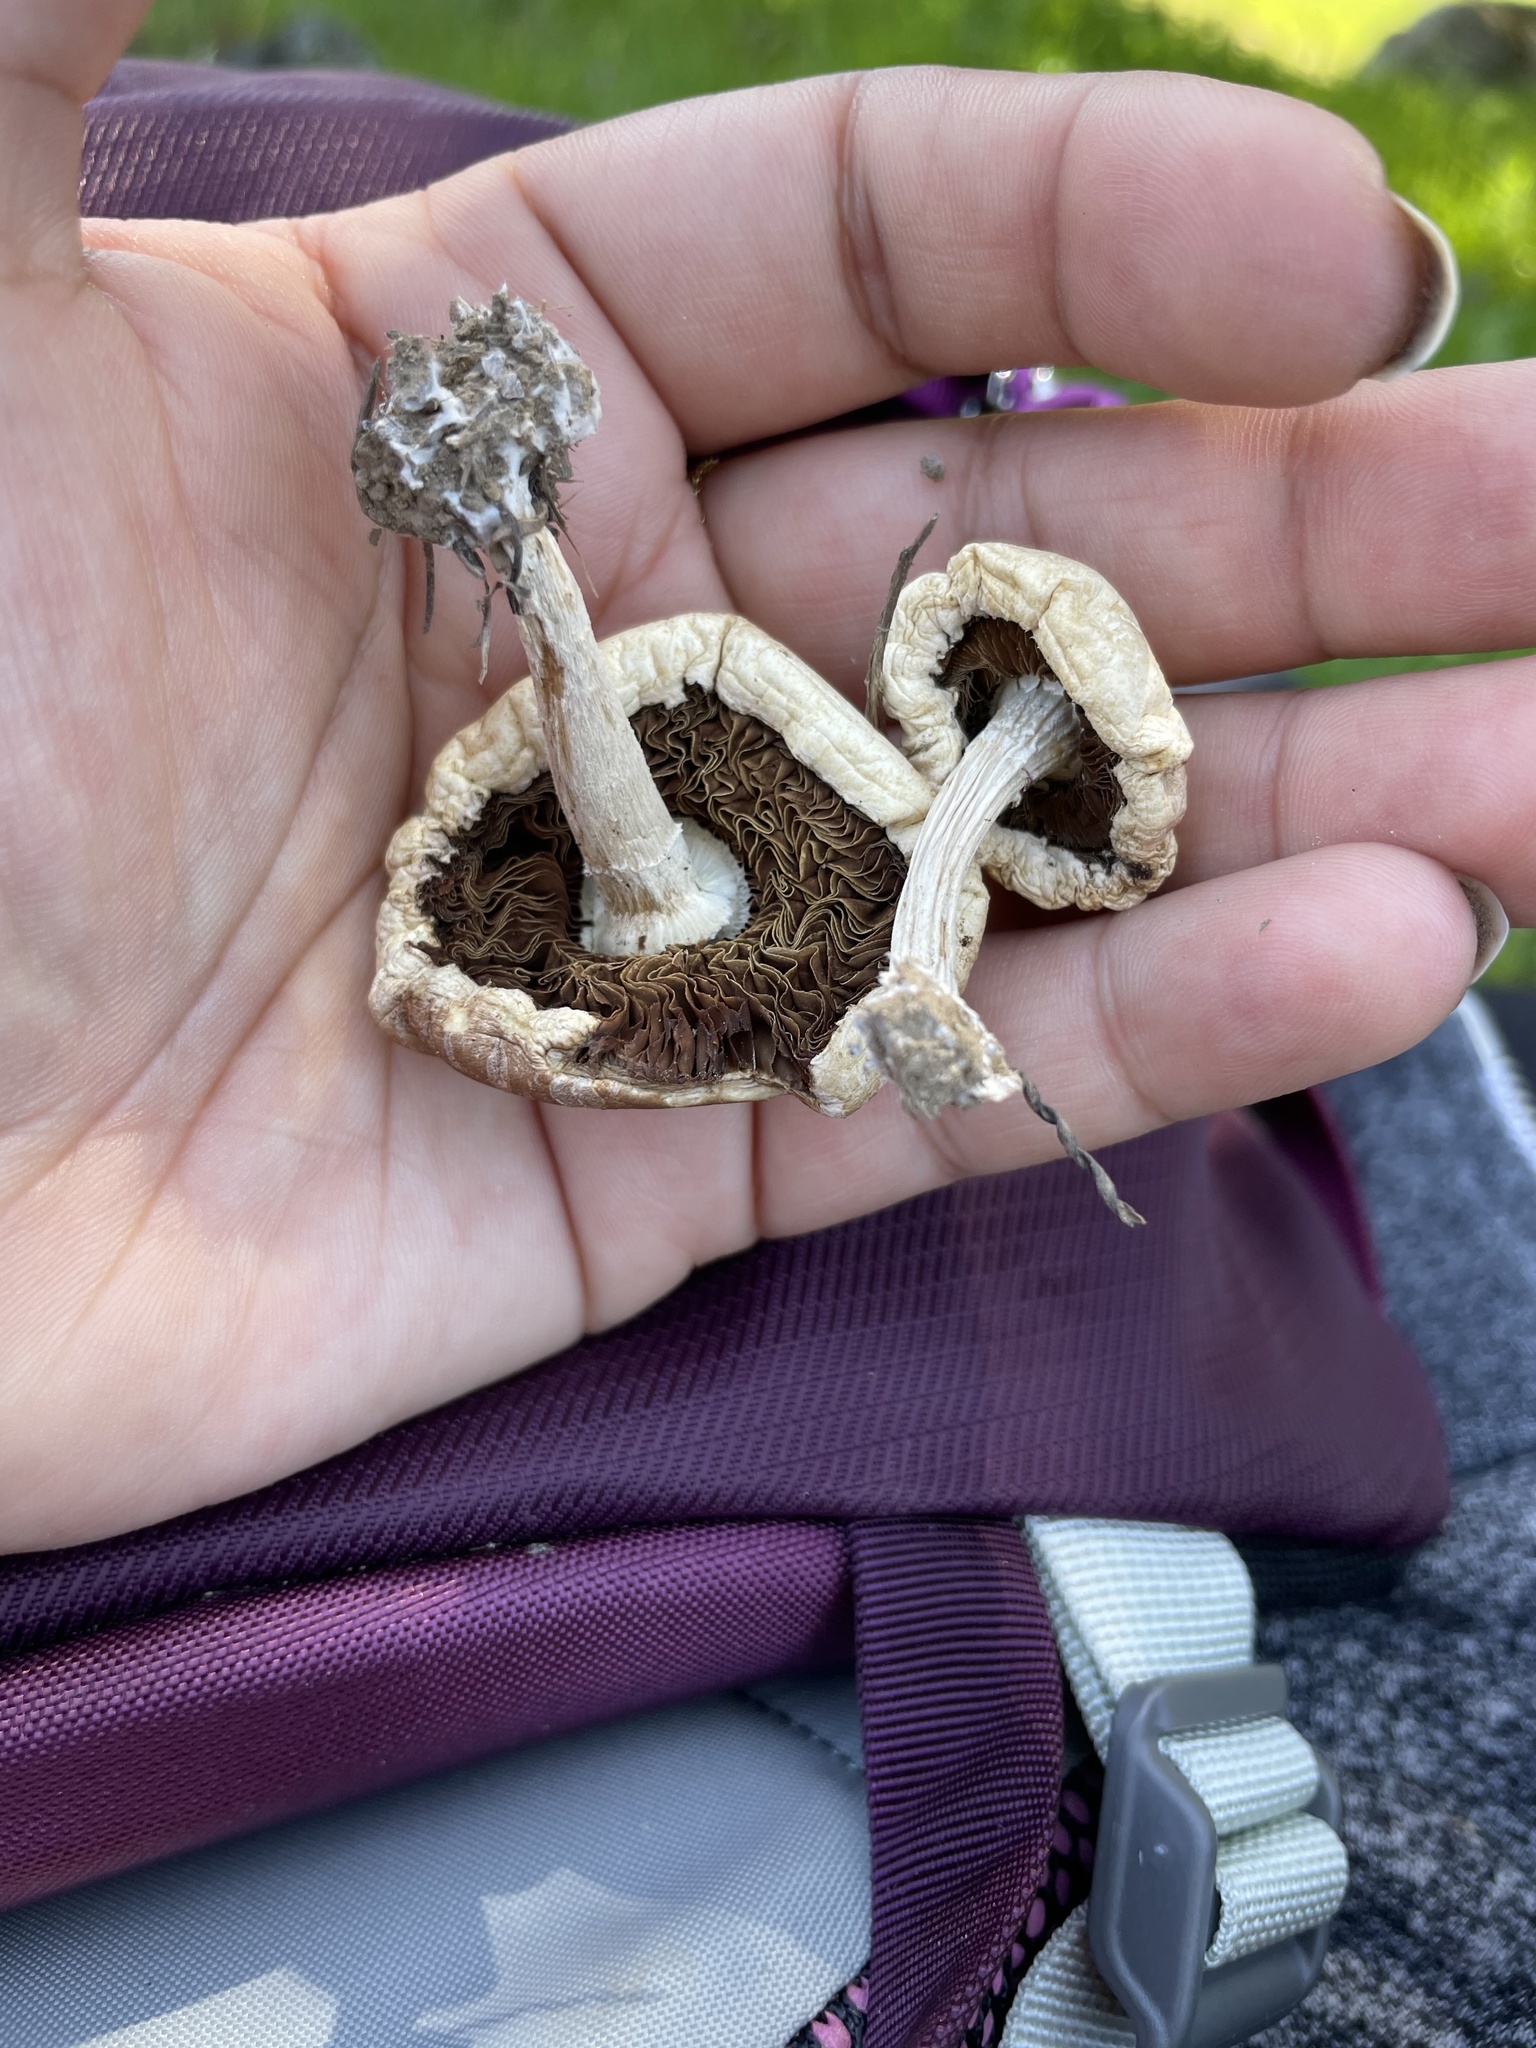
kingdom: Fungi
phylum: Basidiomycota
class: Agaricomycetes
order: Agaricales
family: Strophariaceae
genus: Agrocybe
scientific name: Agrocybe praecox
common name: Spring fieldcap
